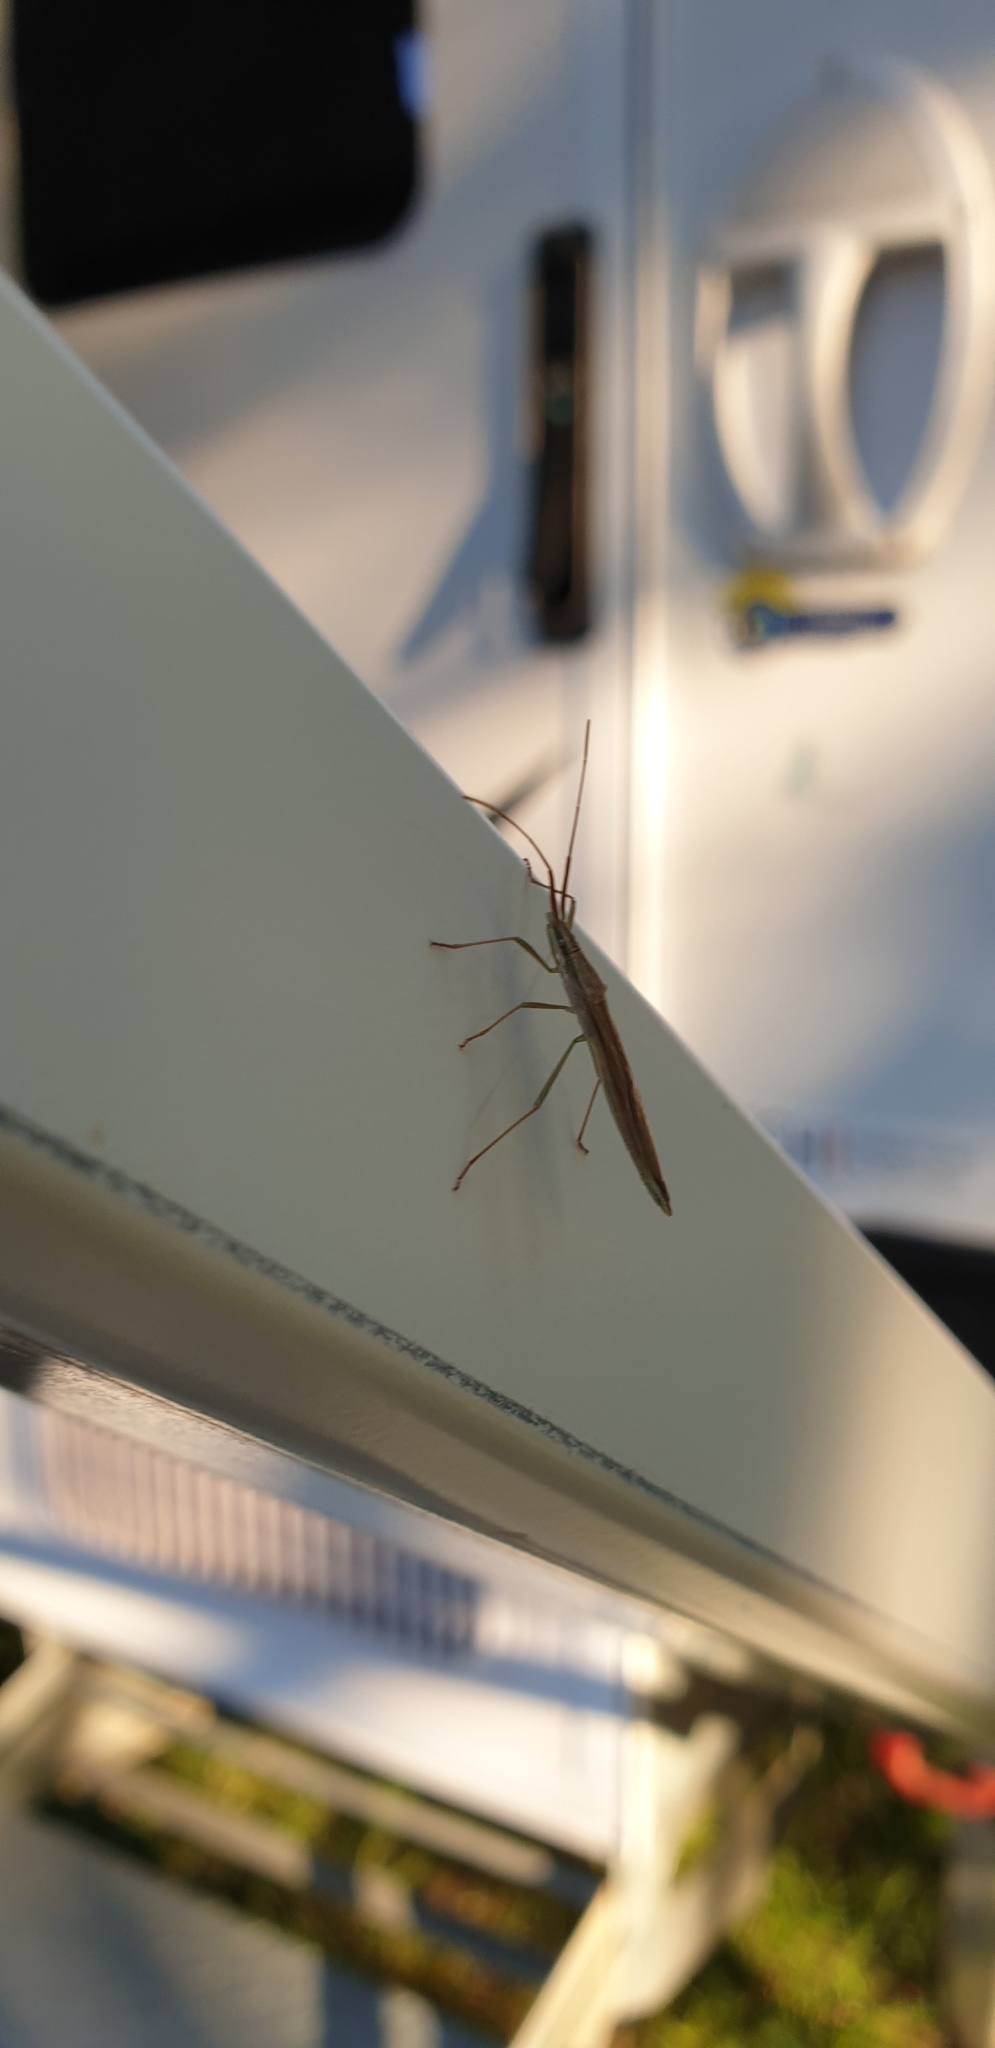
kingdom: Animalia
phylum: Arthropoda
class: Insecta
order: Hemiptera
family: Alydidae
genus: Mutusca
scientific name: Mutusca brevicornis
